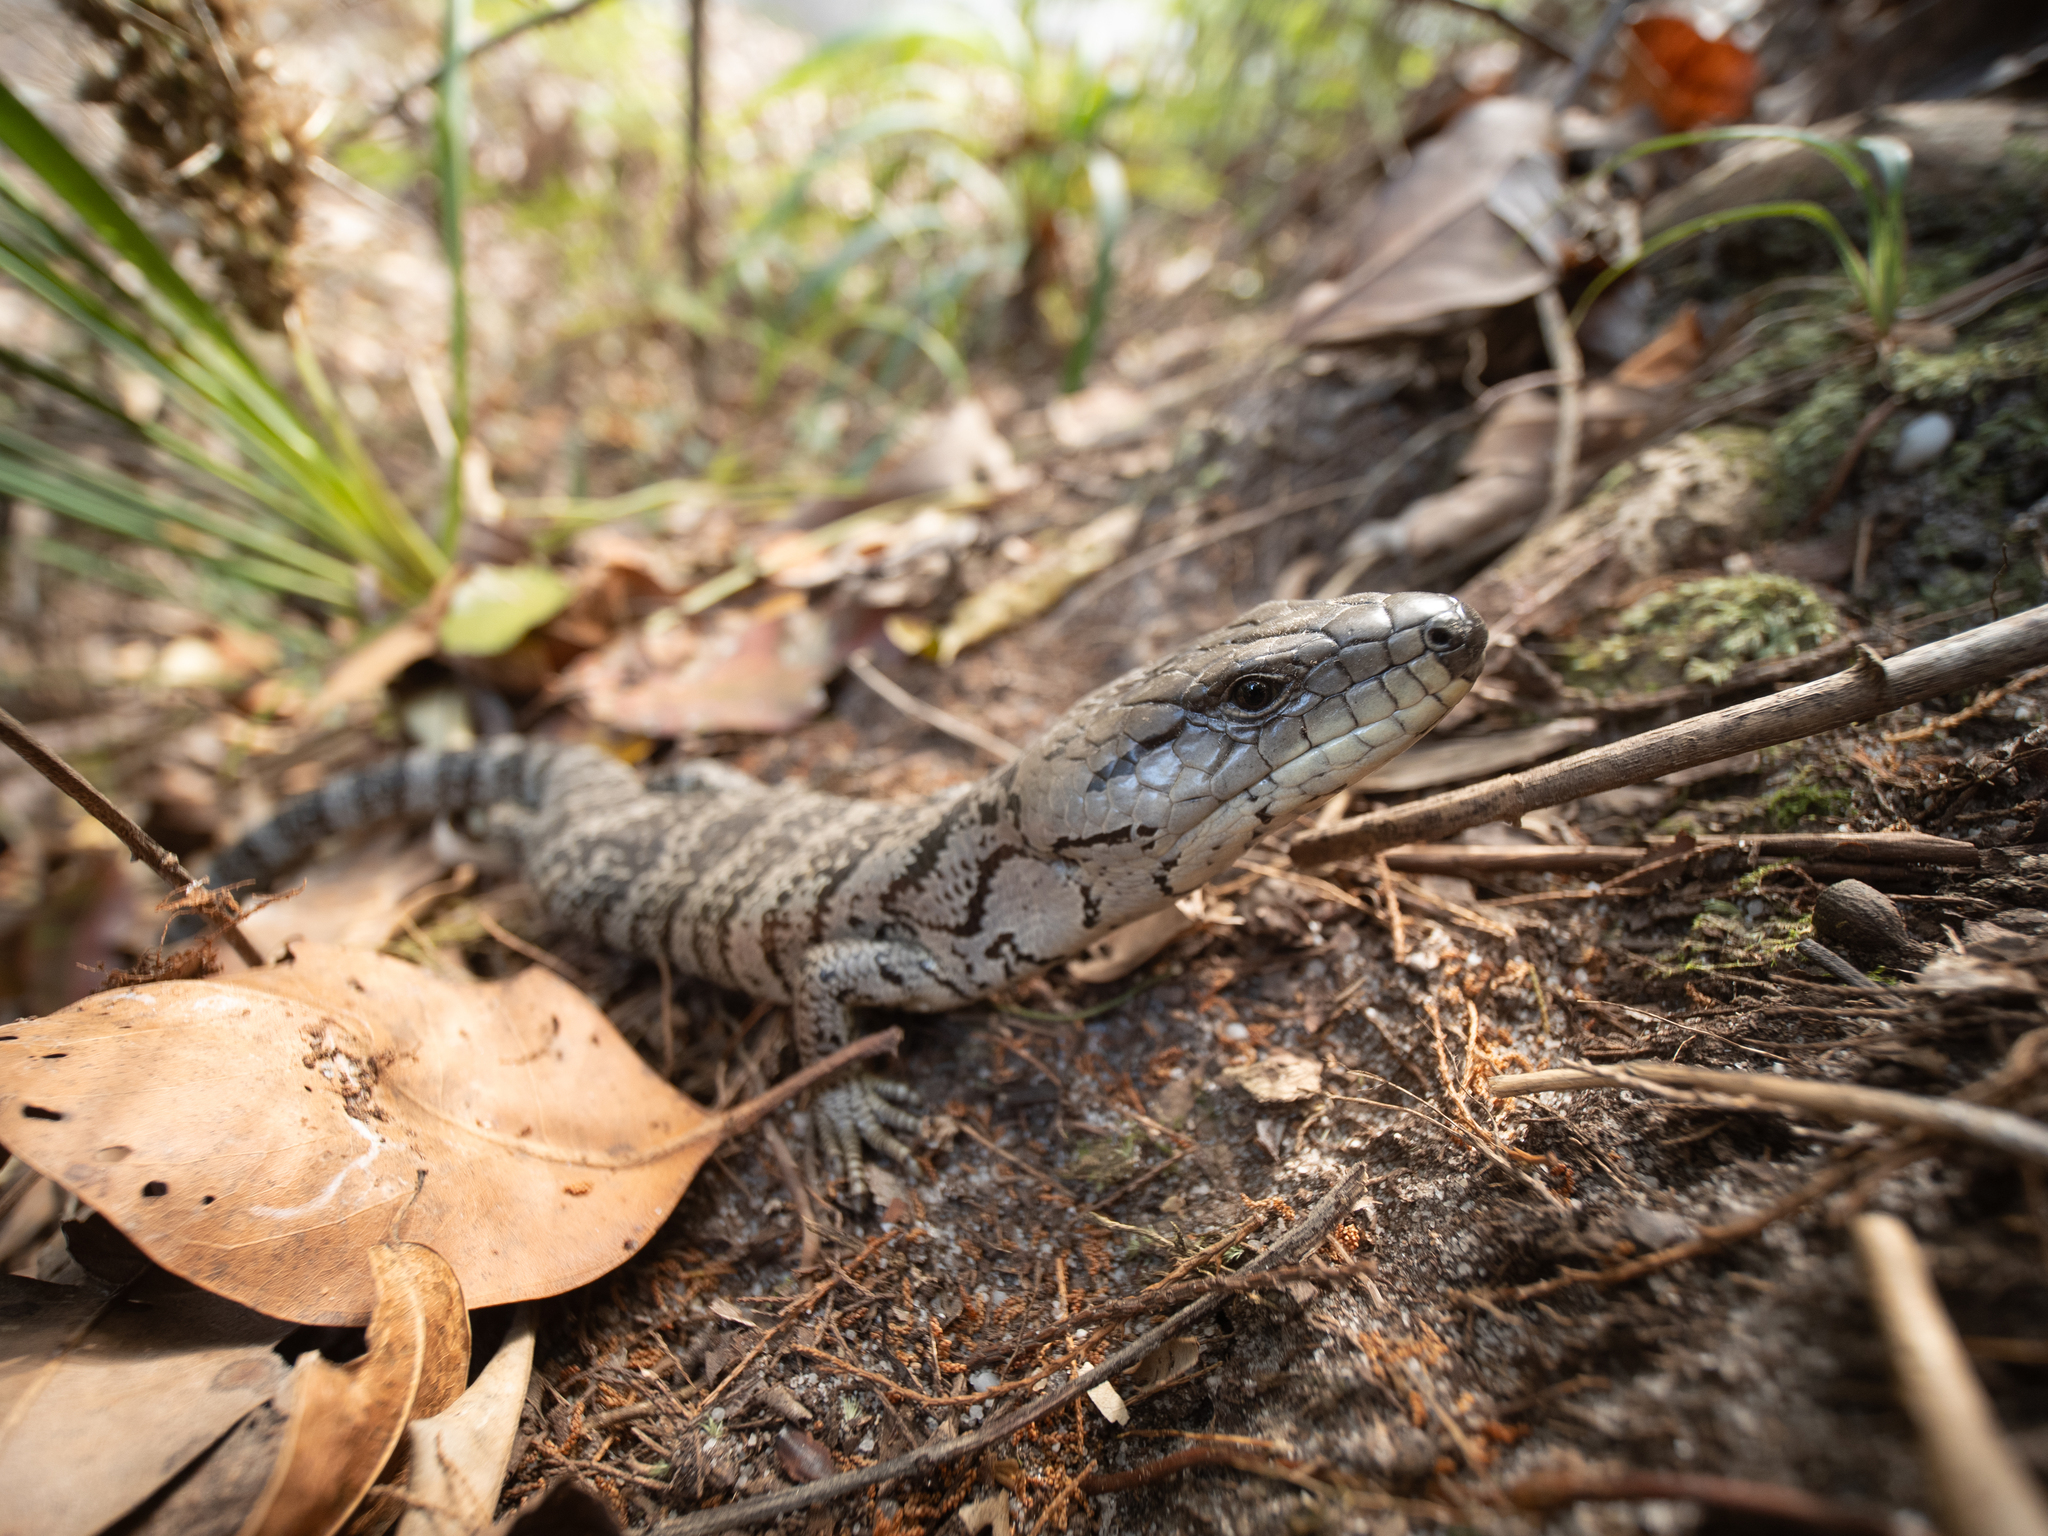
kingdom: Animalia
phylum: Chordata
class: Squamata
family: Scincidae
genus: Cyclodomorphus
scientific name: Cyclodomorphus gerrardii
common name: Pink-tongued lizard
